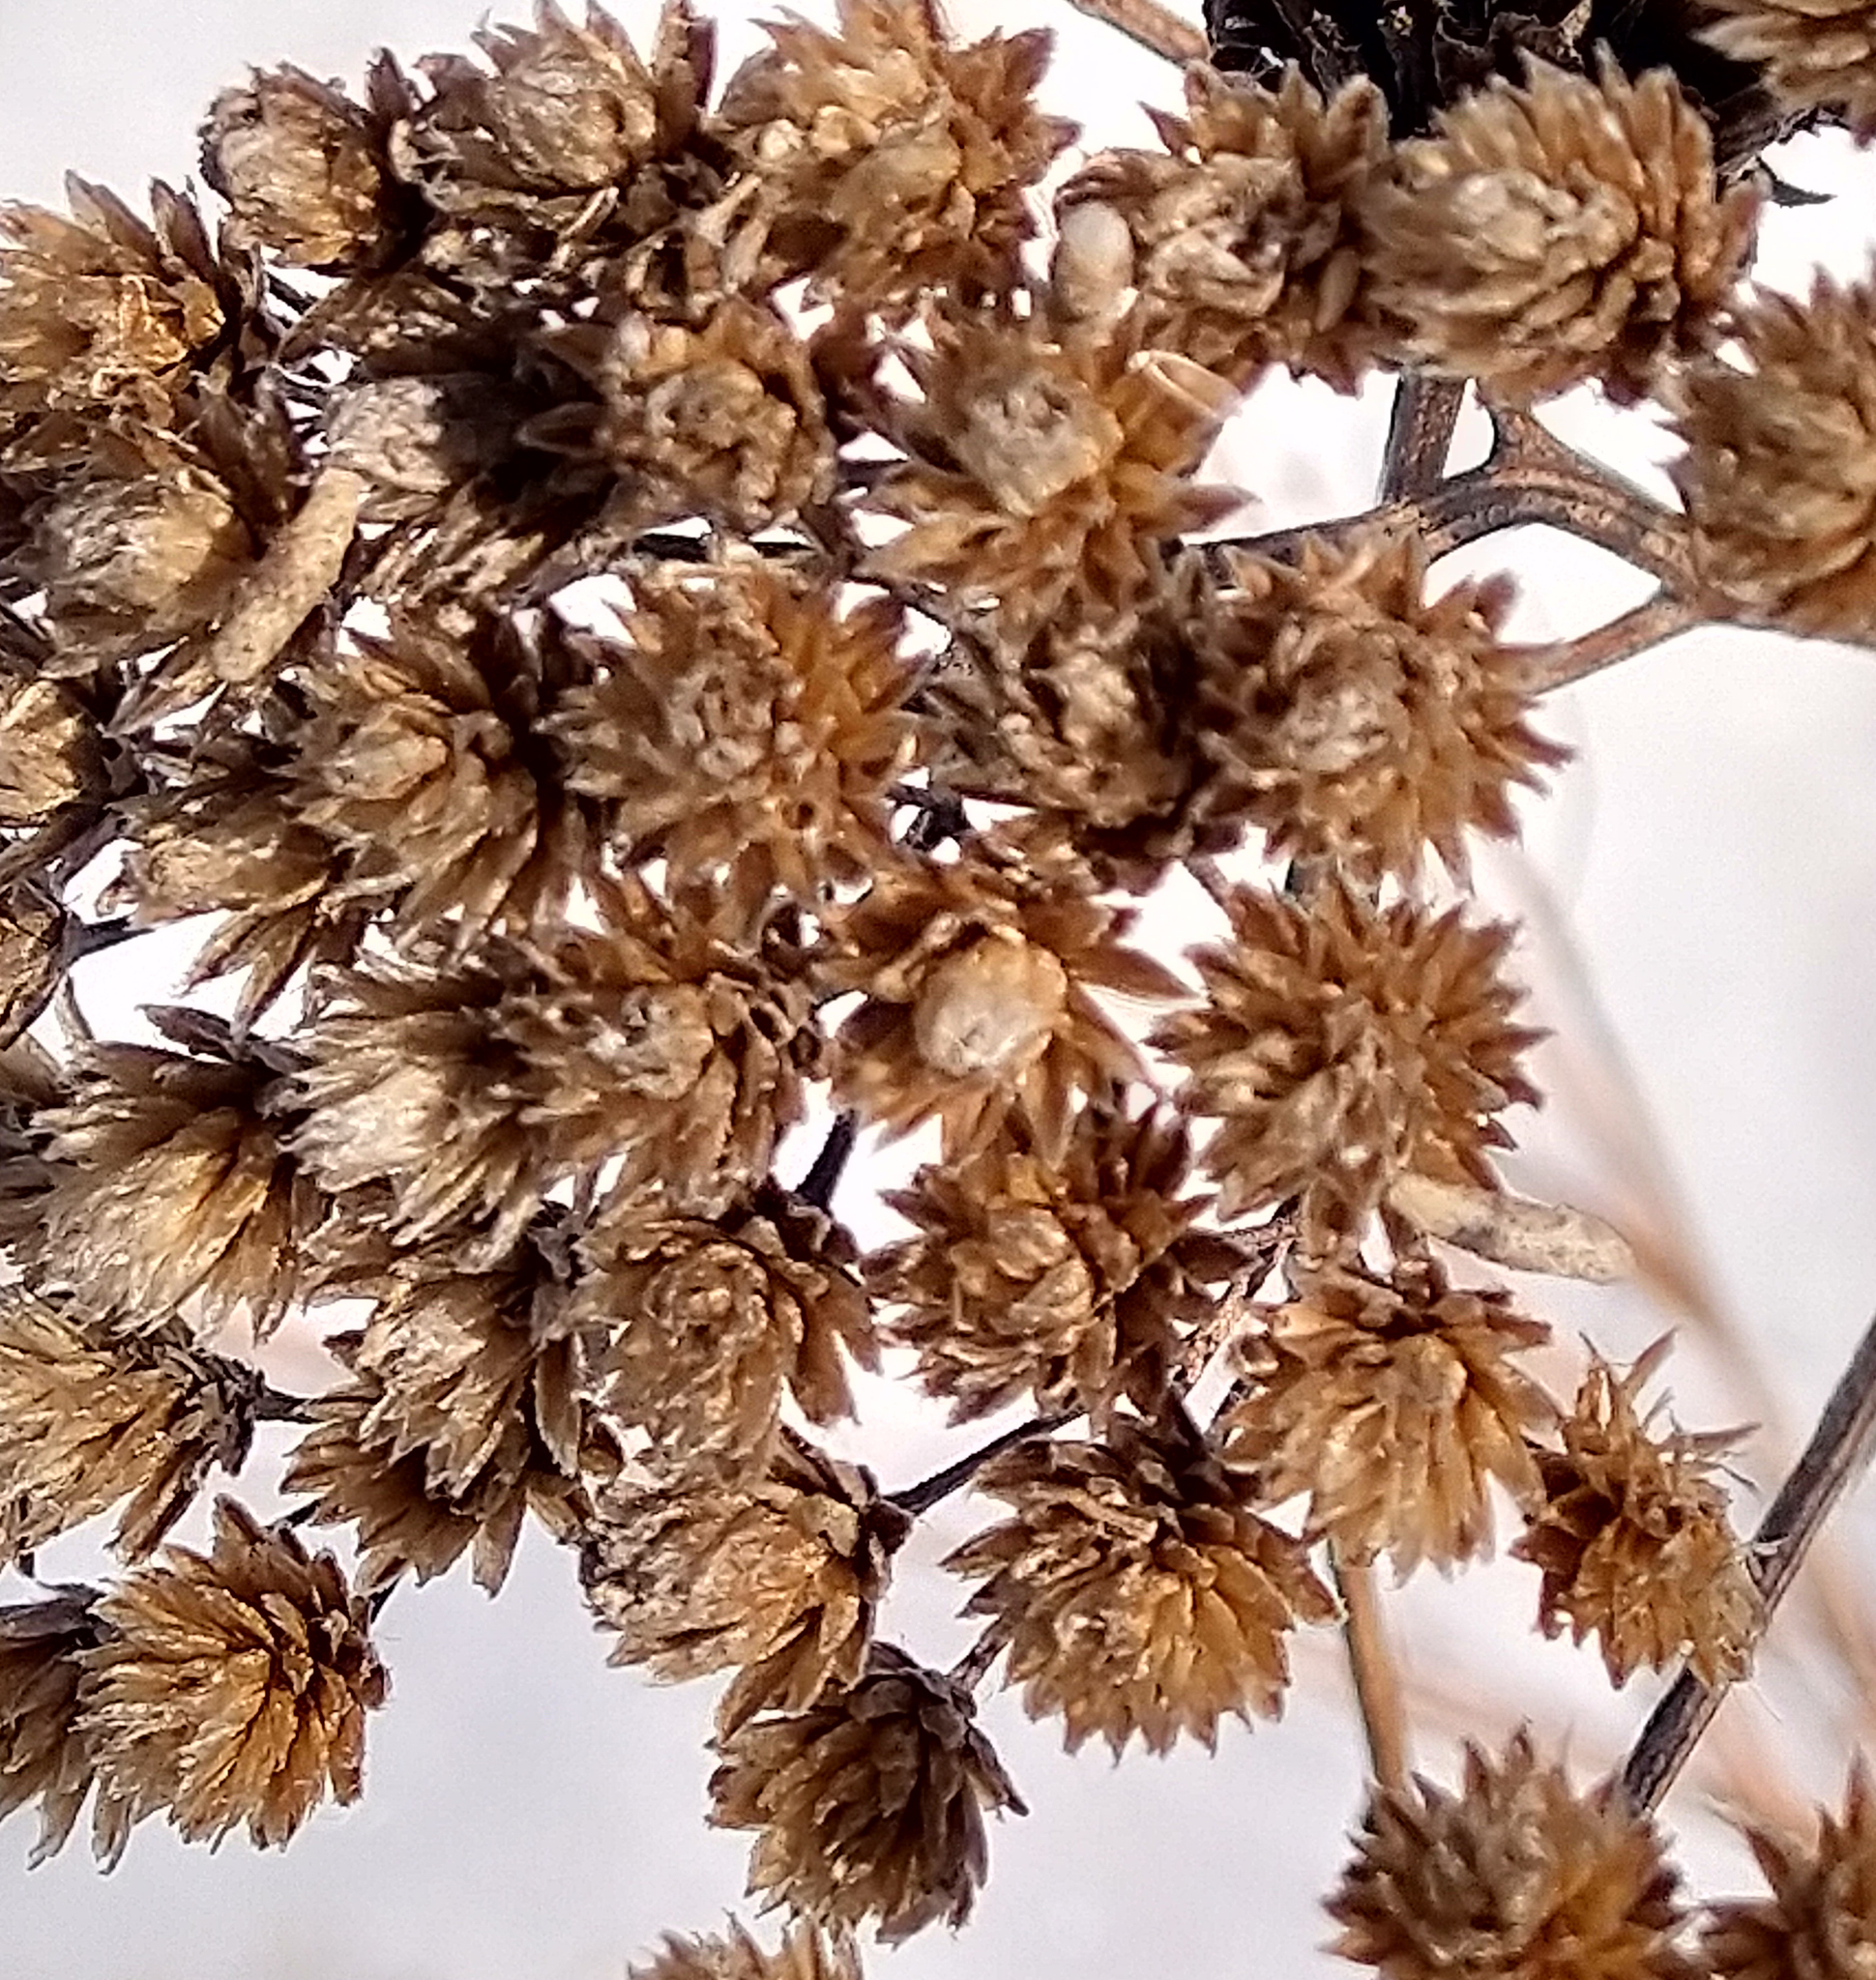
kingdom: Plantae
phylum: Tracheophyta
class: Magnoliopsida
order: Asterales
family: Asteraceae
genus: Achillea
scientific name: Achillea millefolium
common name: Yarrow
